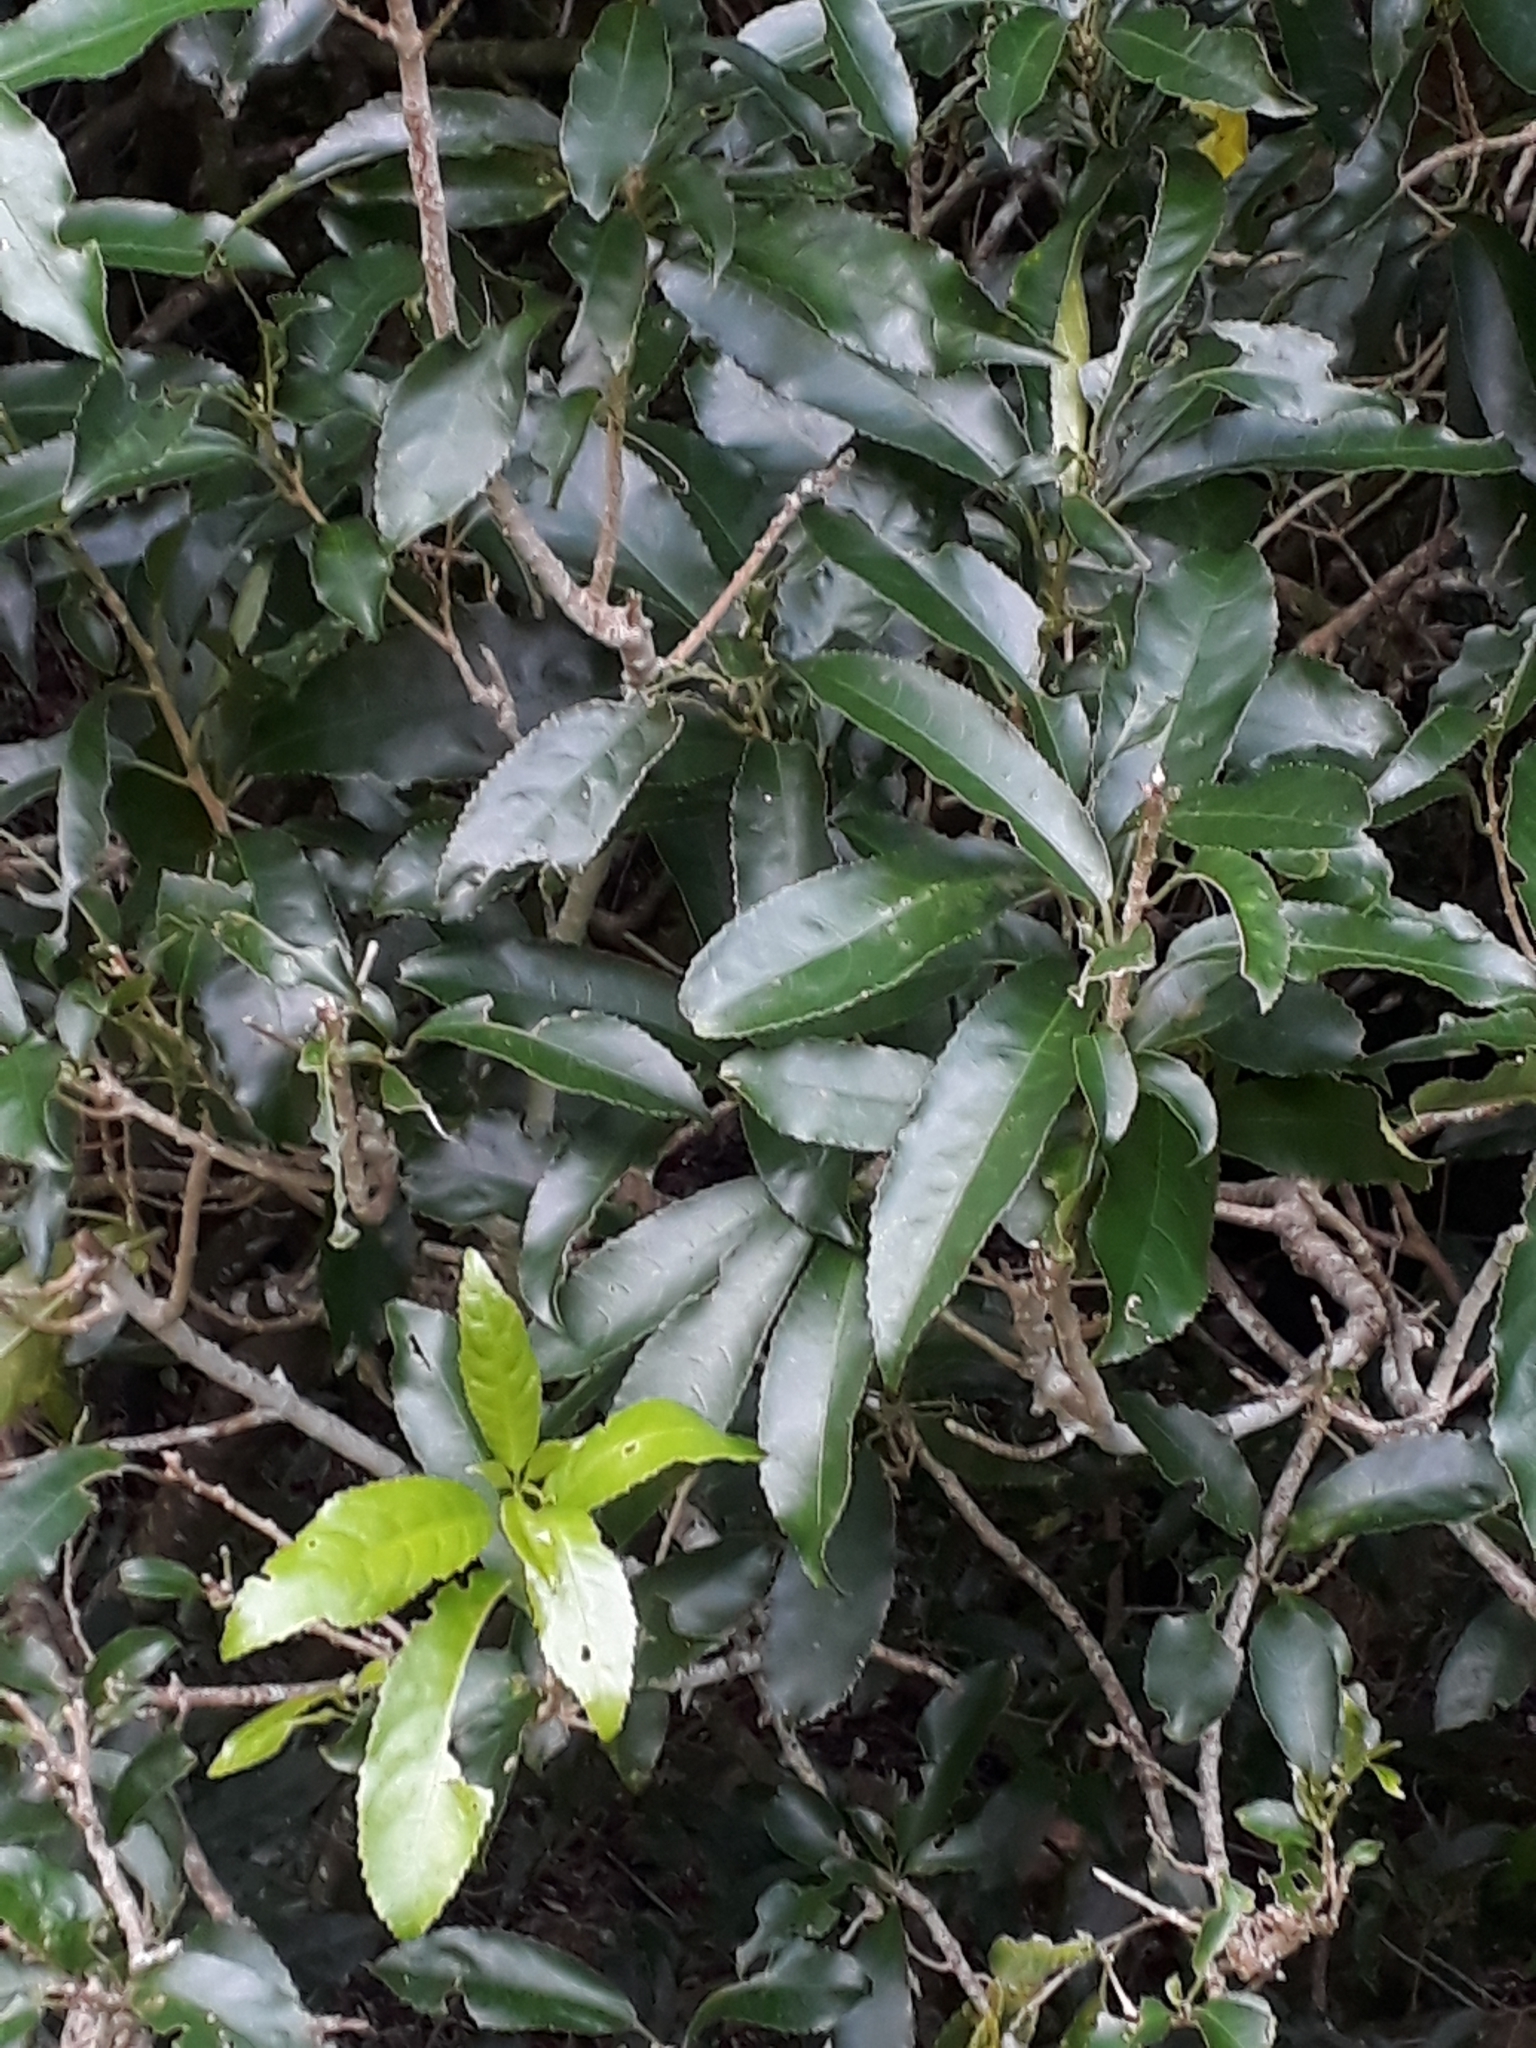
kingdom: Plantae
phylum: Tracheophyta
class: Magnoliopsida
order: Malpighiales
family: Violaceae
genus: Melicytus
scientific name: Melicytus ramiflorus
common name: Mahoe
